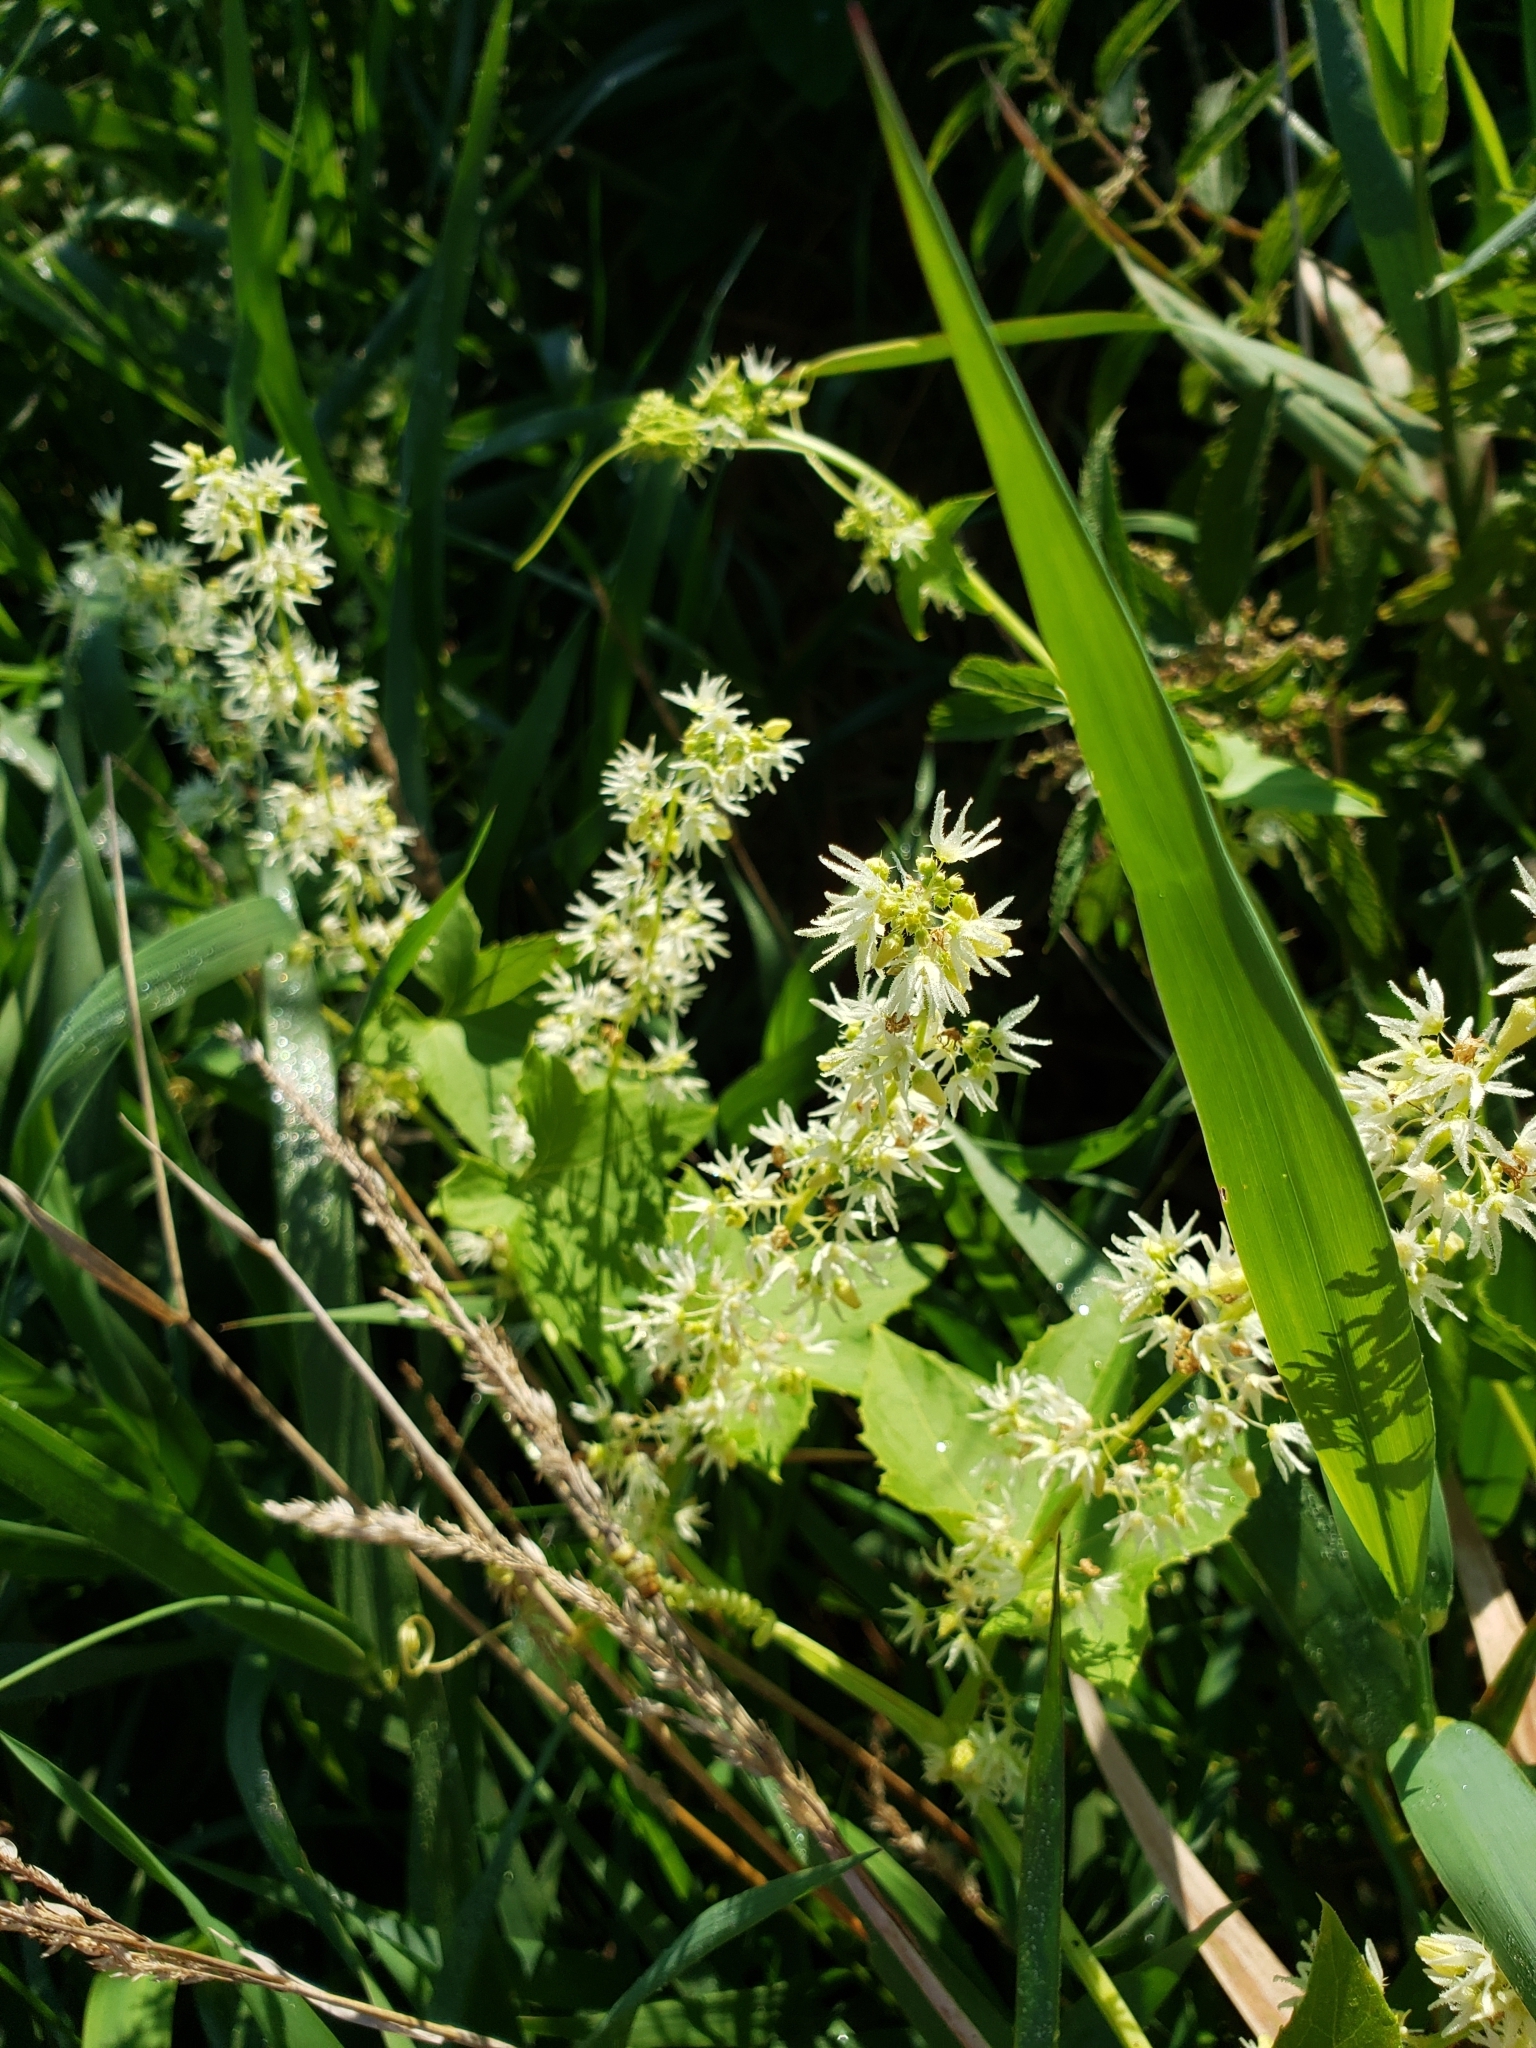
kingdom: Plantae
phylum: Tracheophyta
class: Magnoliopsida
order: Cucurbitales
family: Cucurbitaceae
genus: Echinocystis
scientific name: Echinocystis lobata
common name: Wild cucumber
